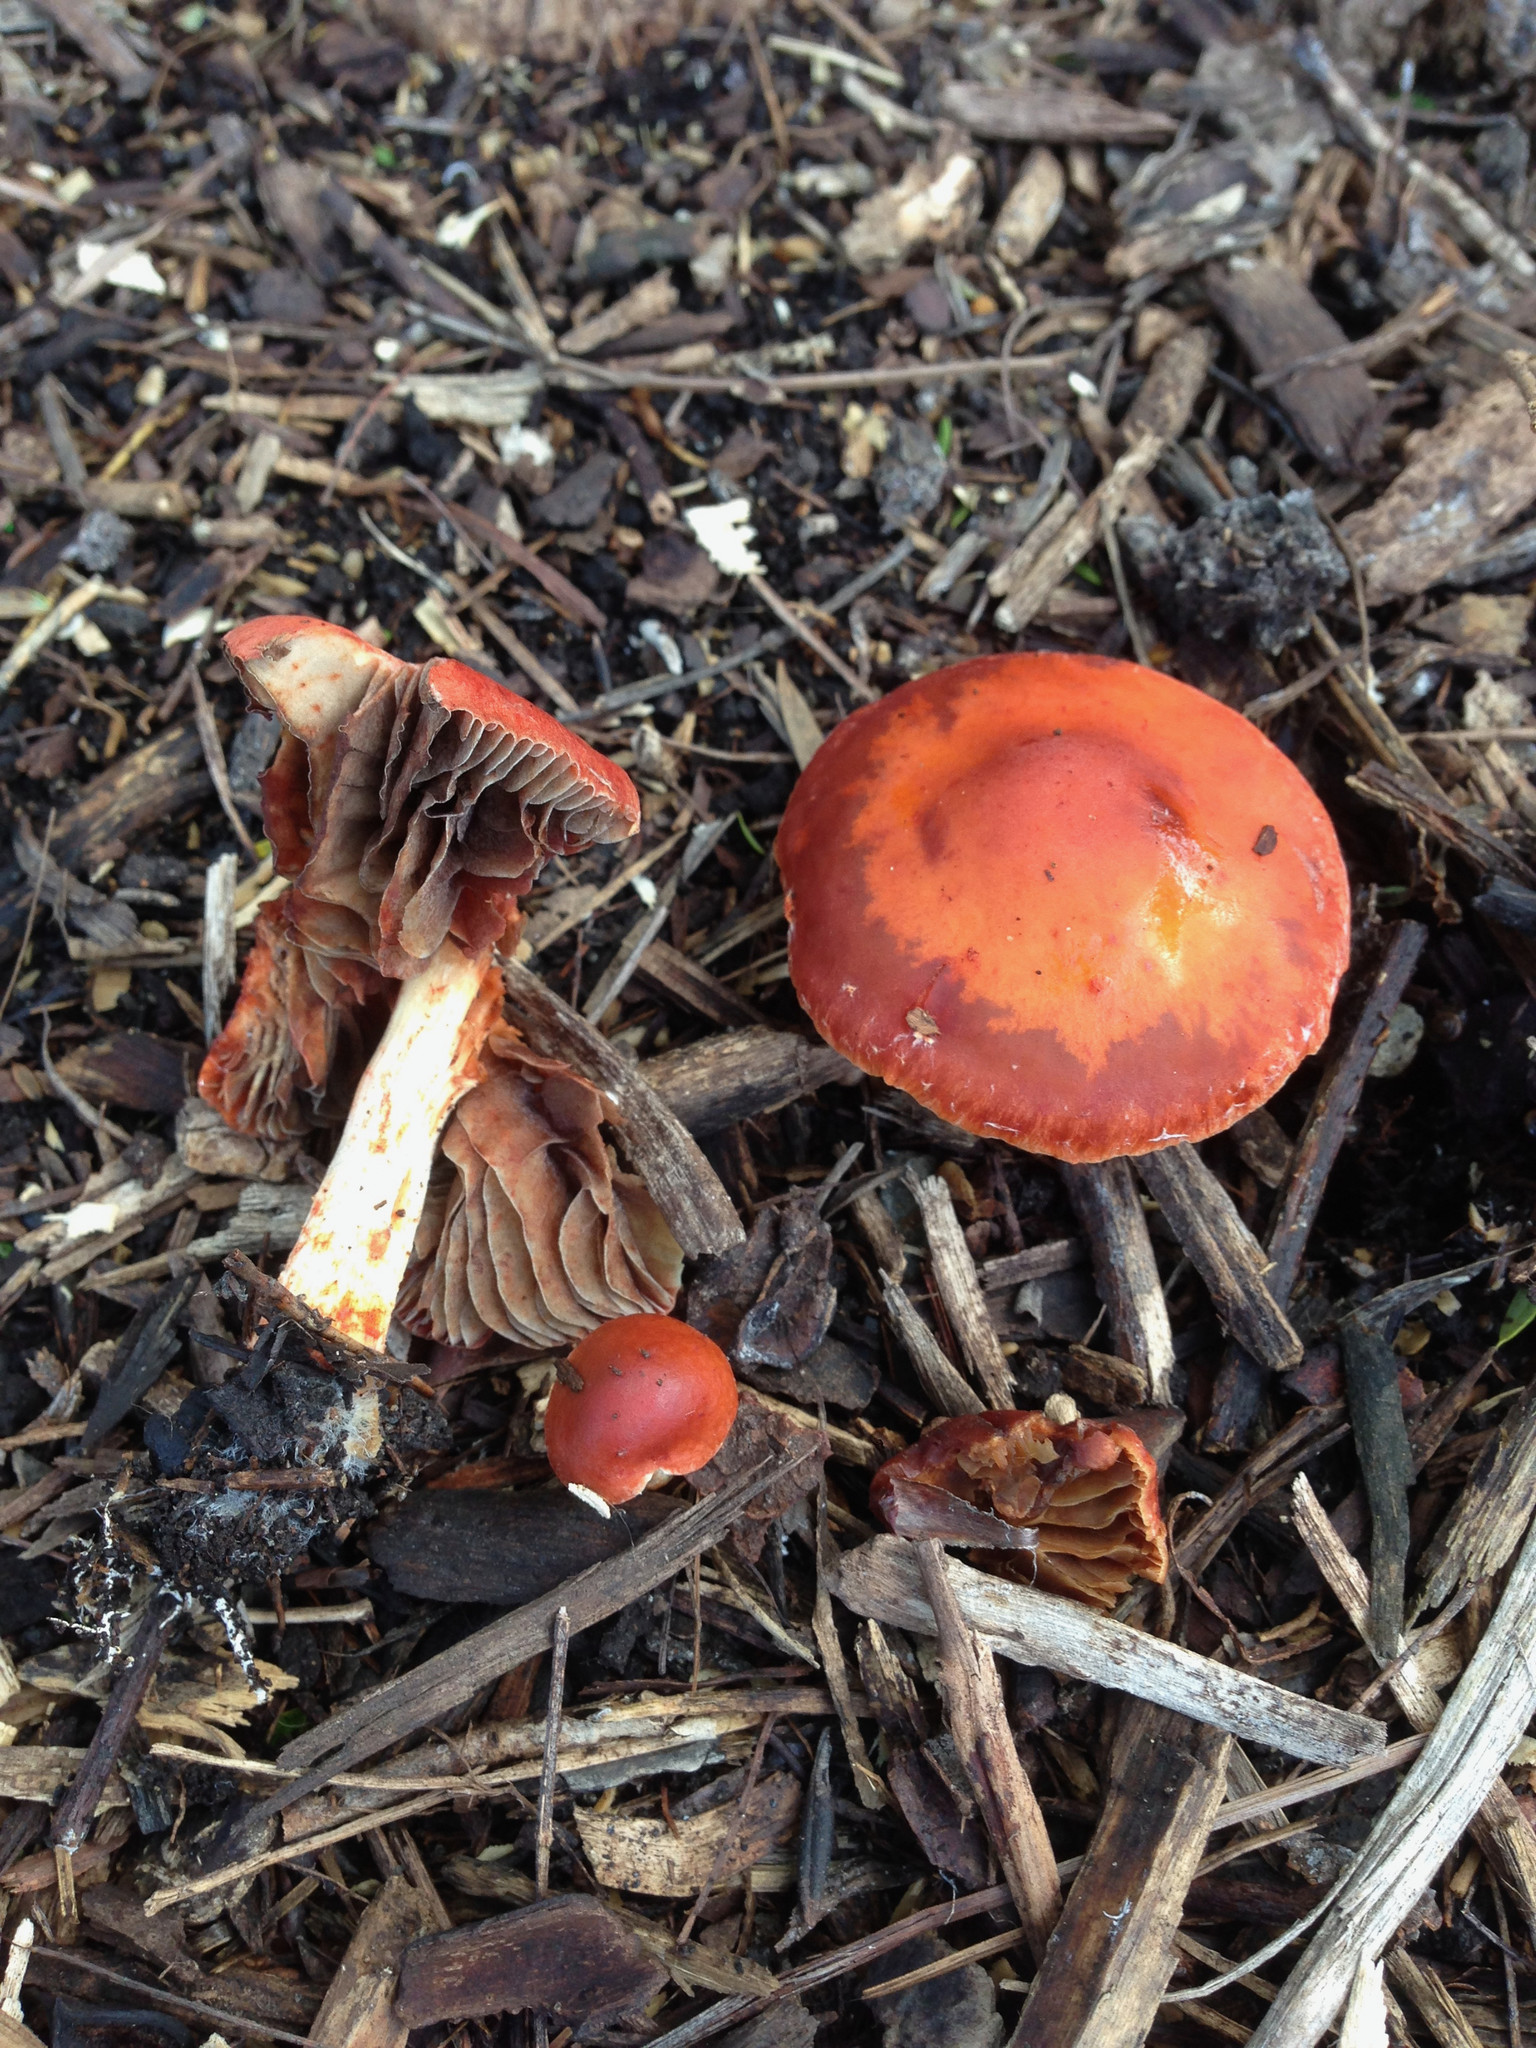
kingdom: Fungi
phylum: Basidiomycota
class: Agaricomycetes
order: Agaricales
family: Strophariaceae
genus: Leratiomyces
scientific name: Leratiomyces ceres
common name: Redlead roundhead
